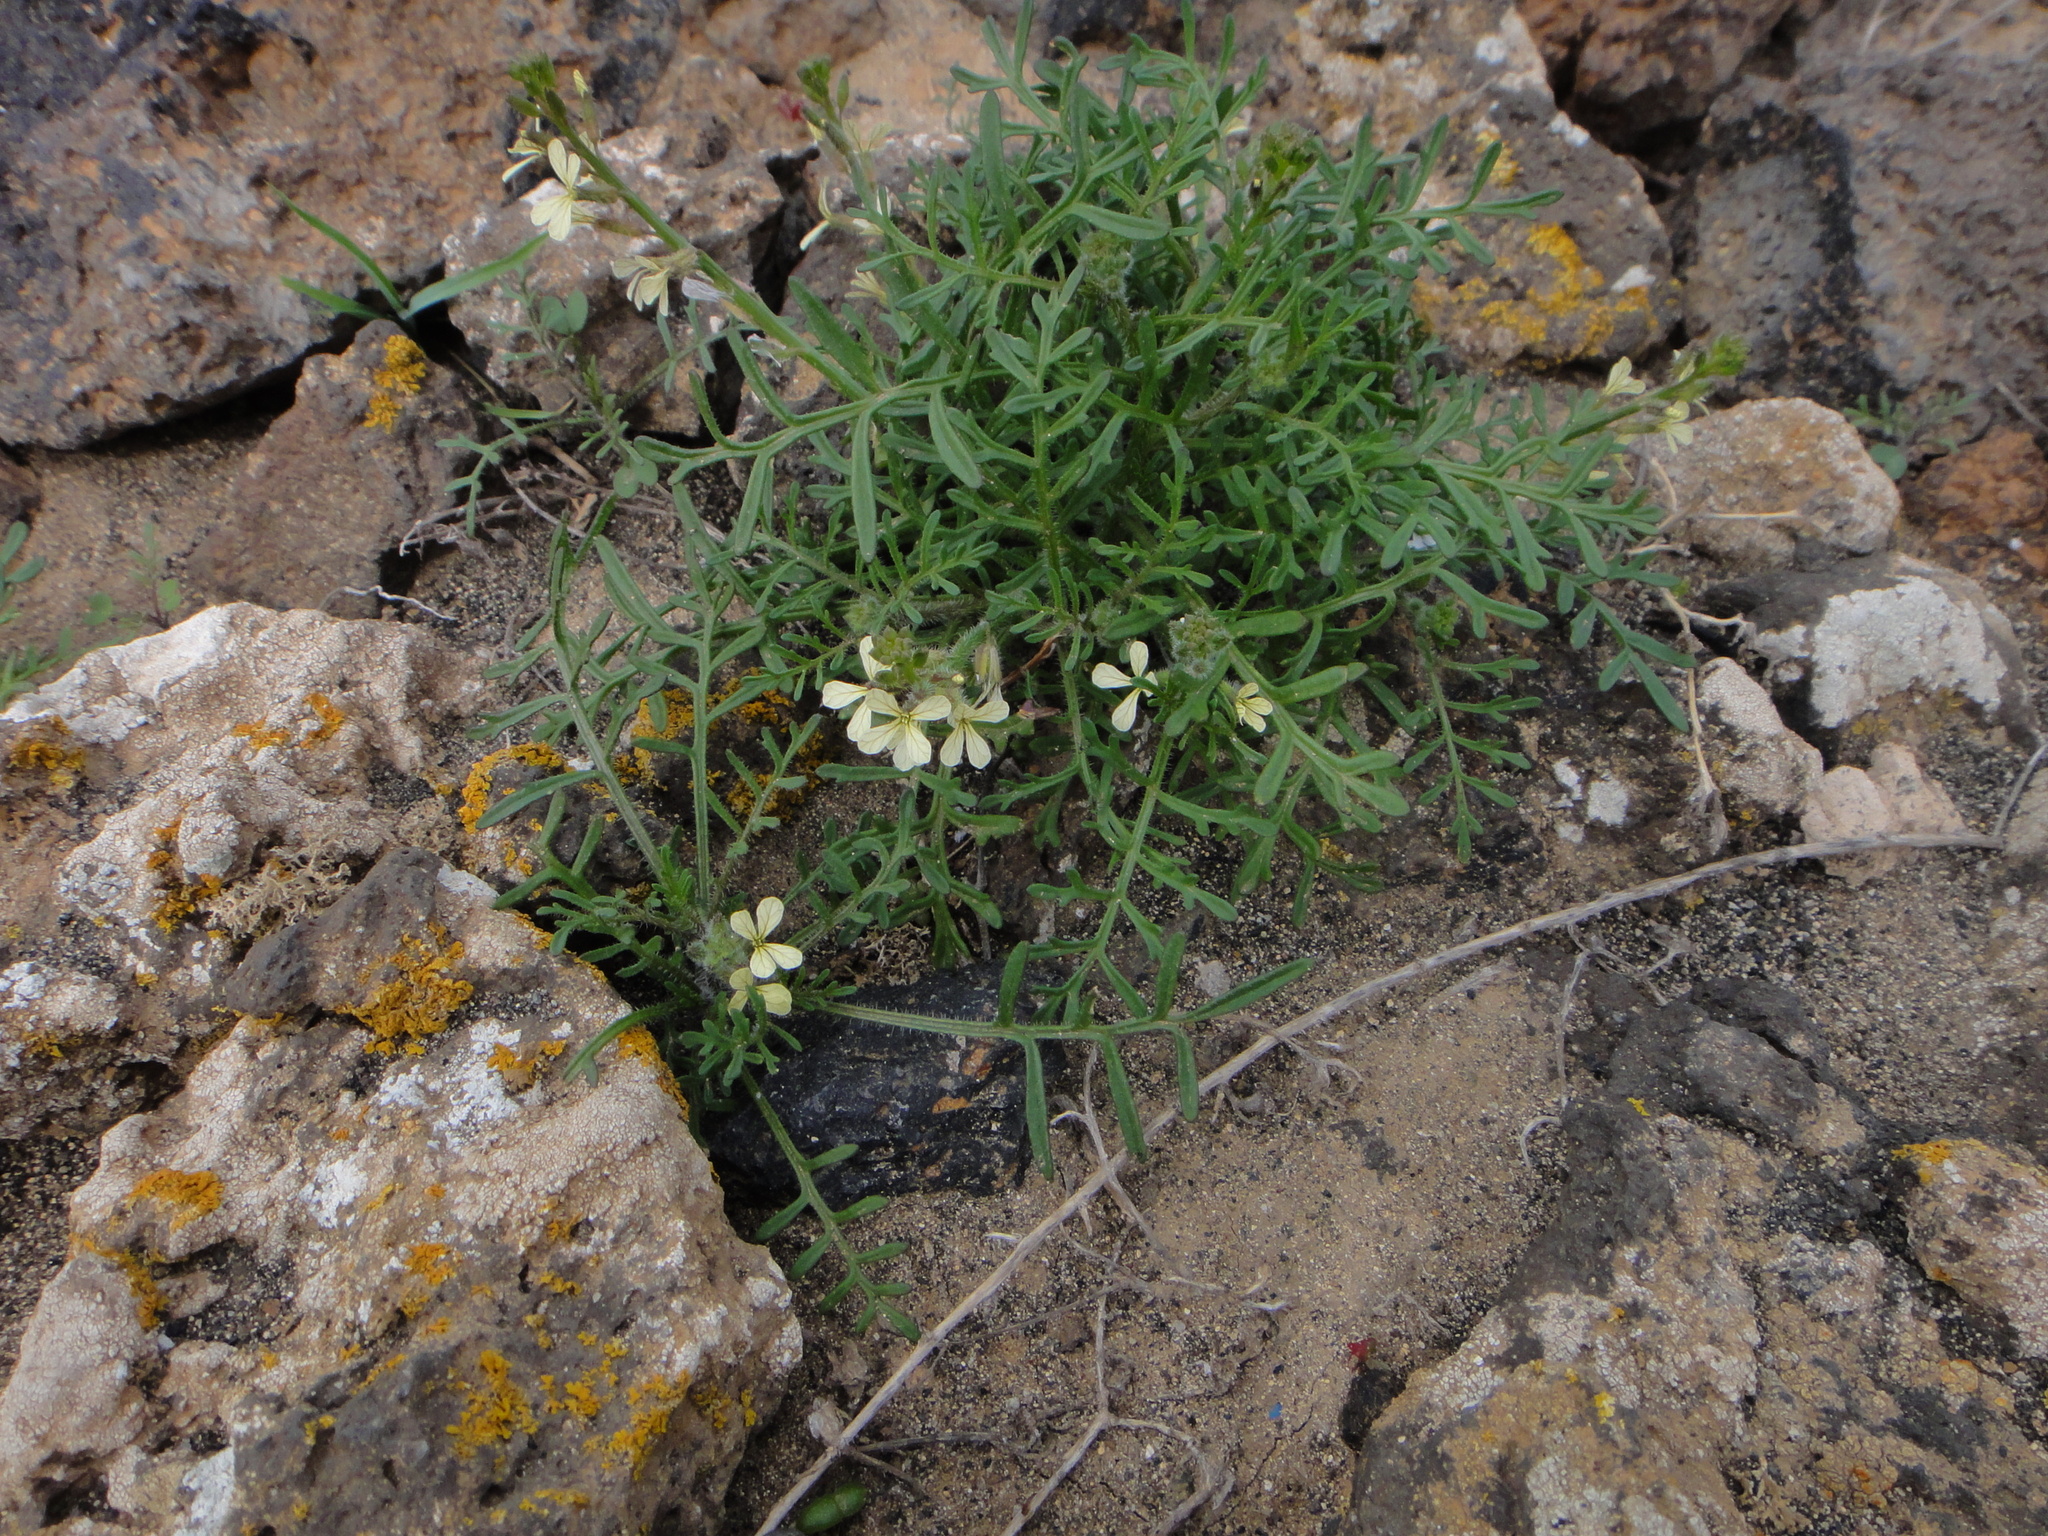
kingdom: Plantae
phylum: Tracheophyta
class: Magnoliopsida
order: Brassicales
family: Brassicaceae
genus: Carrichtera
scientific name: Carrichtera annua
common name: Cress rocket
